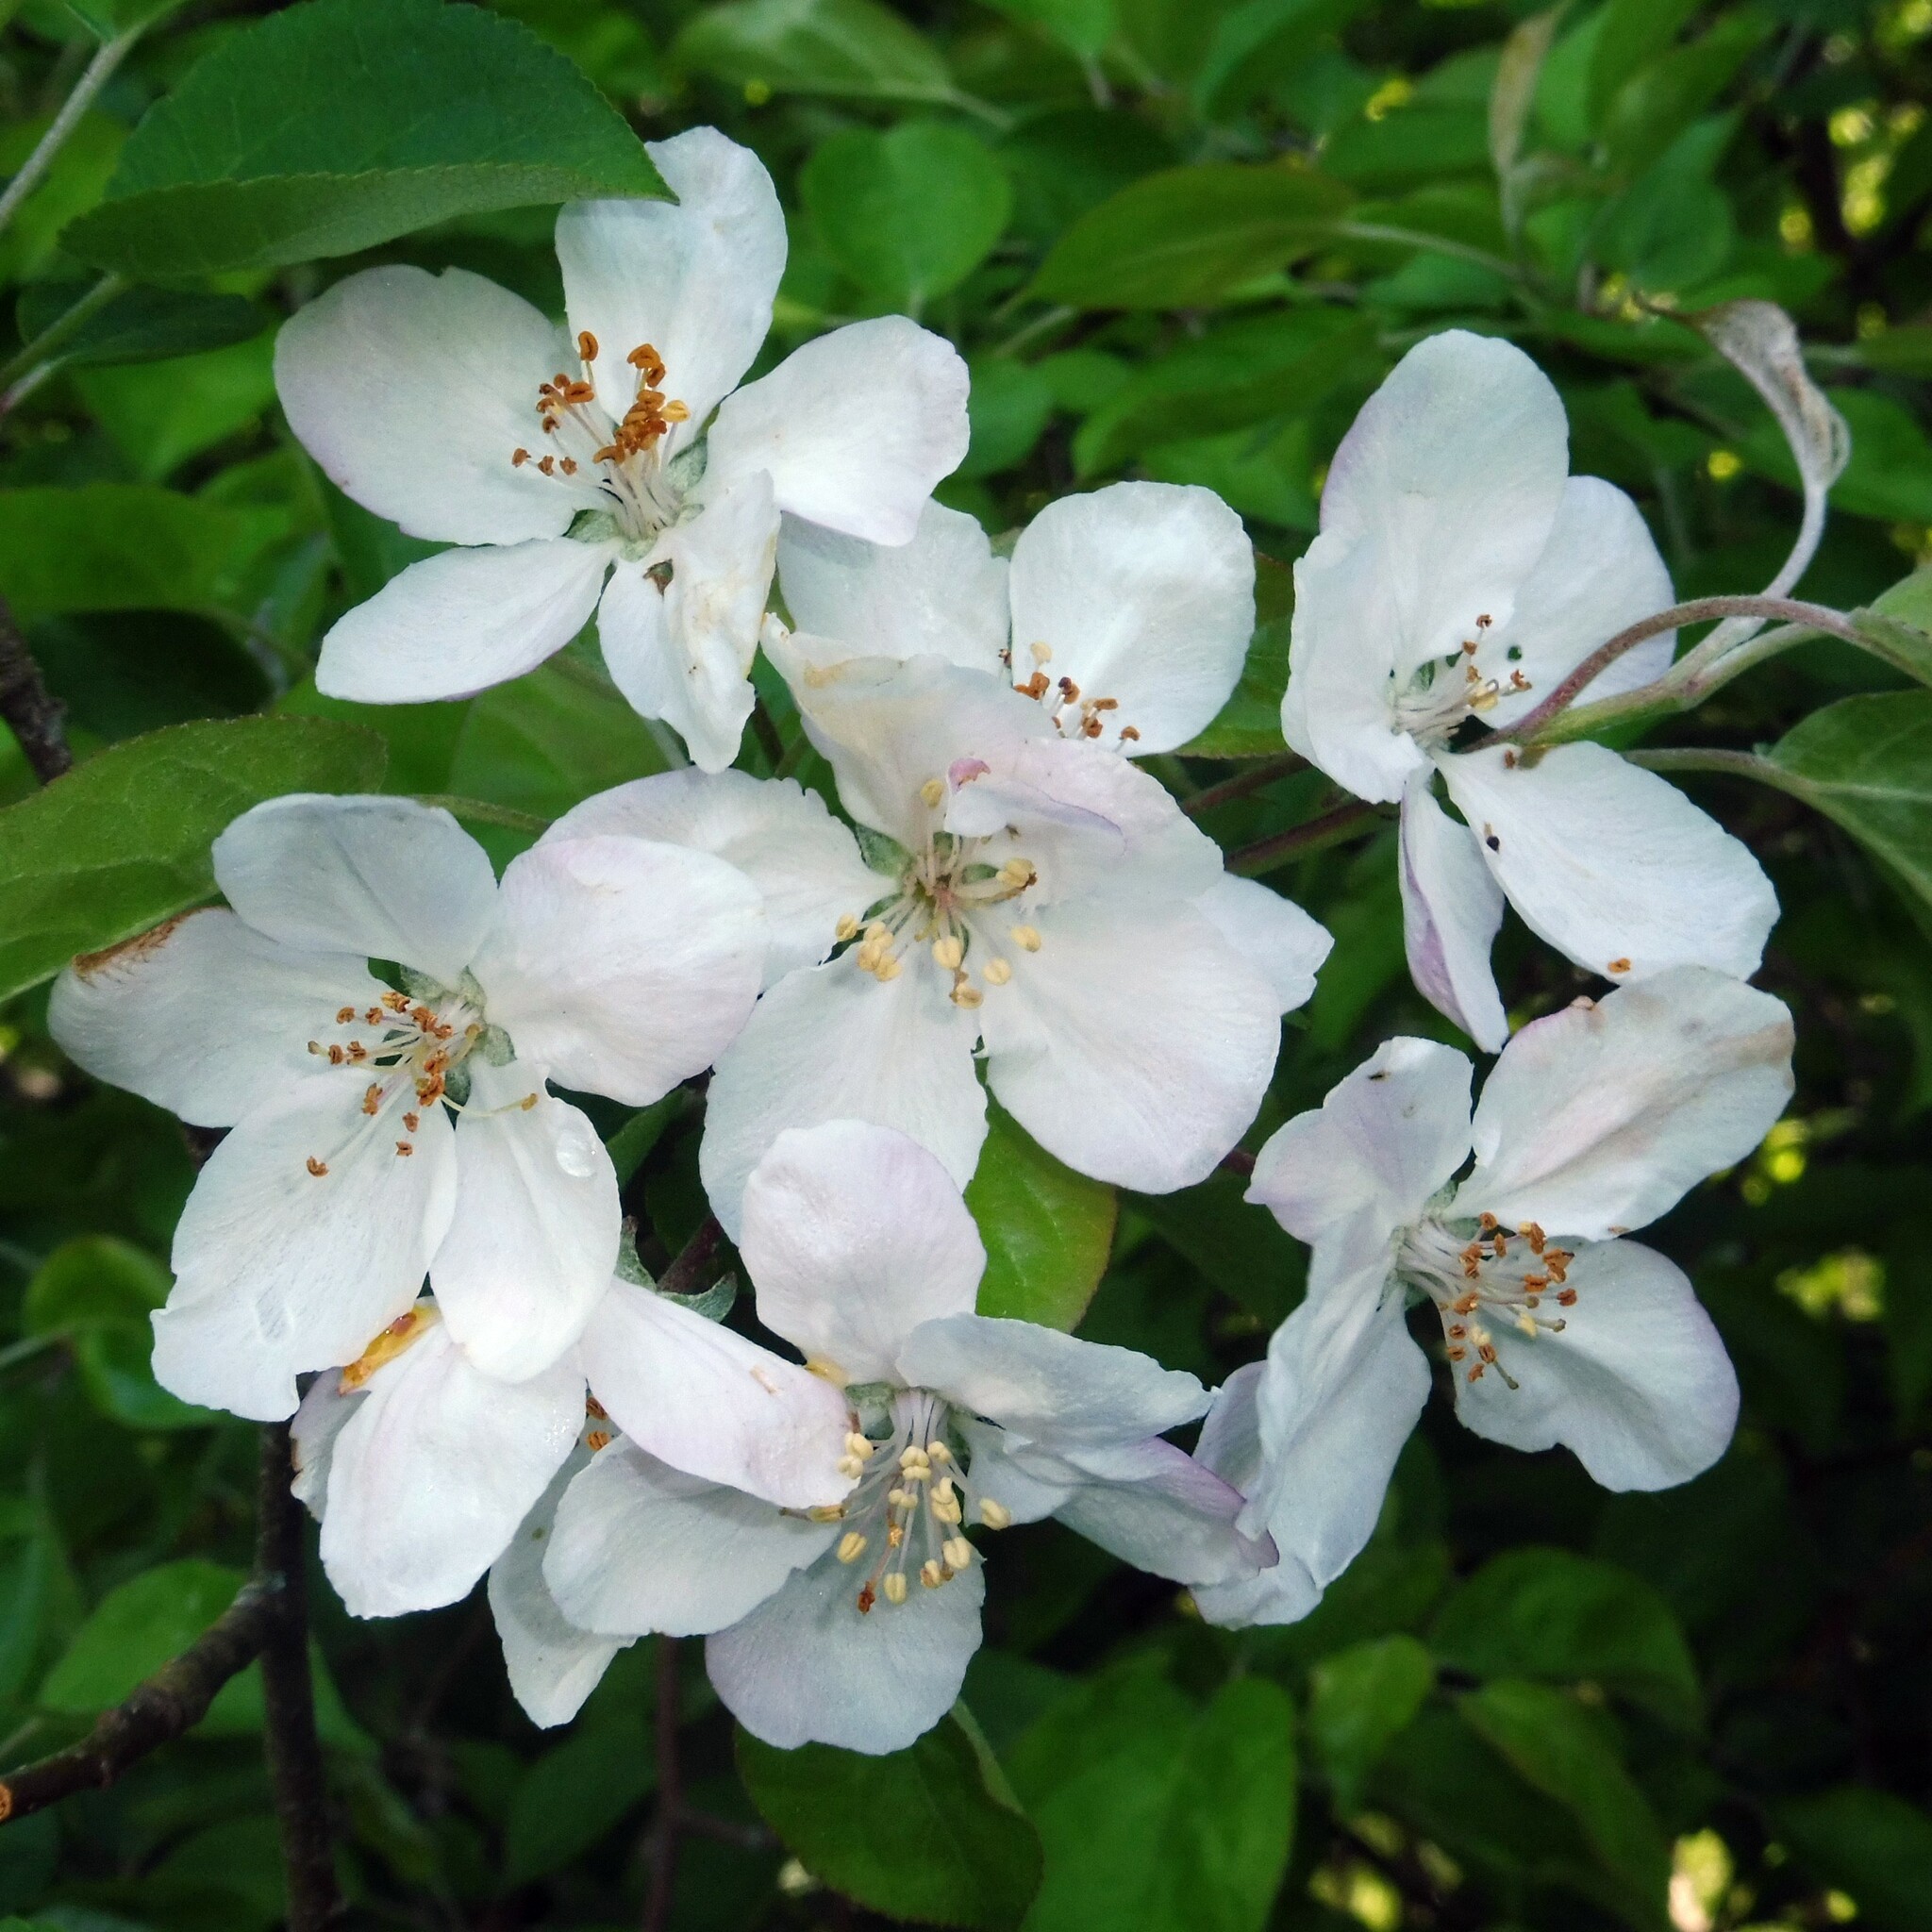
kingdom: Plantae
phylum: Tracheophyta
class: Magnoliopsida
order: Rosales
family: Rosaceae
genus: Malus
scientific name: Malus domestica
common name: Apple
